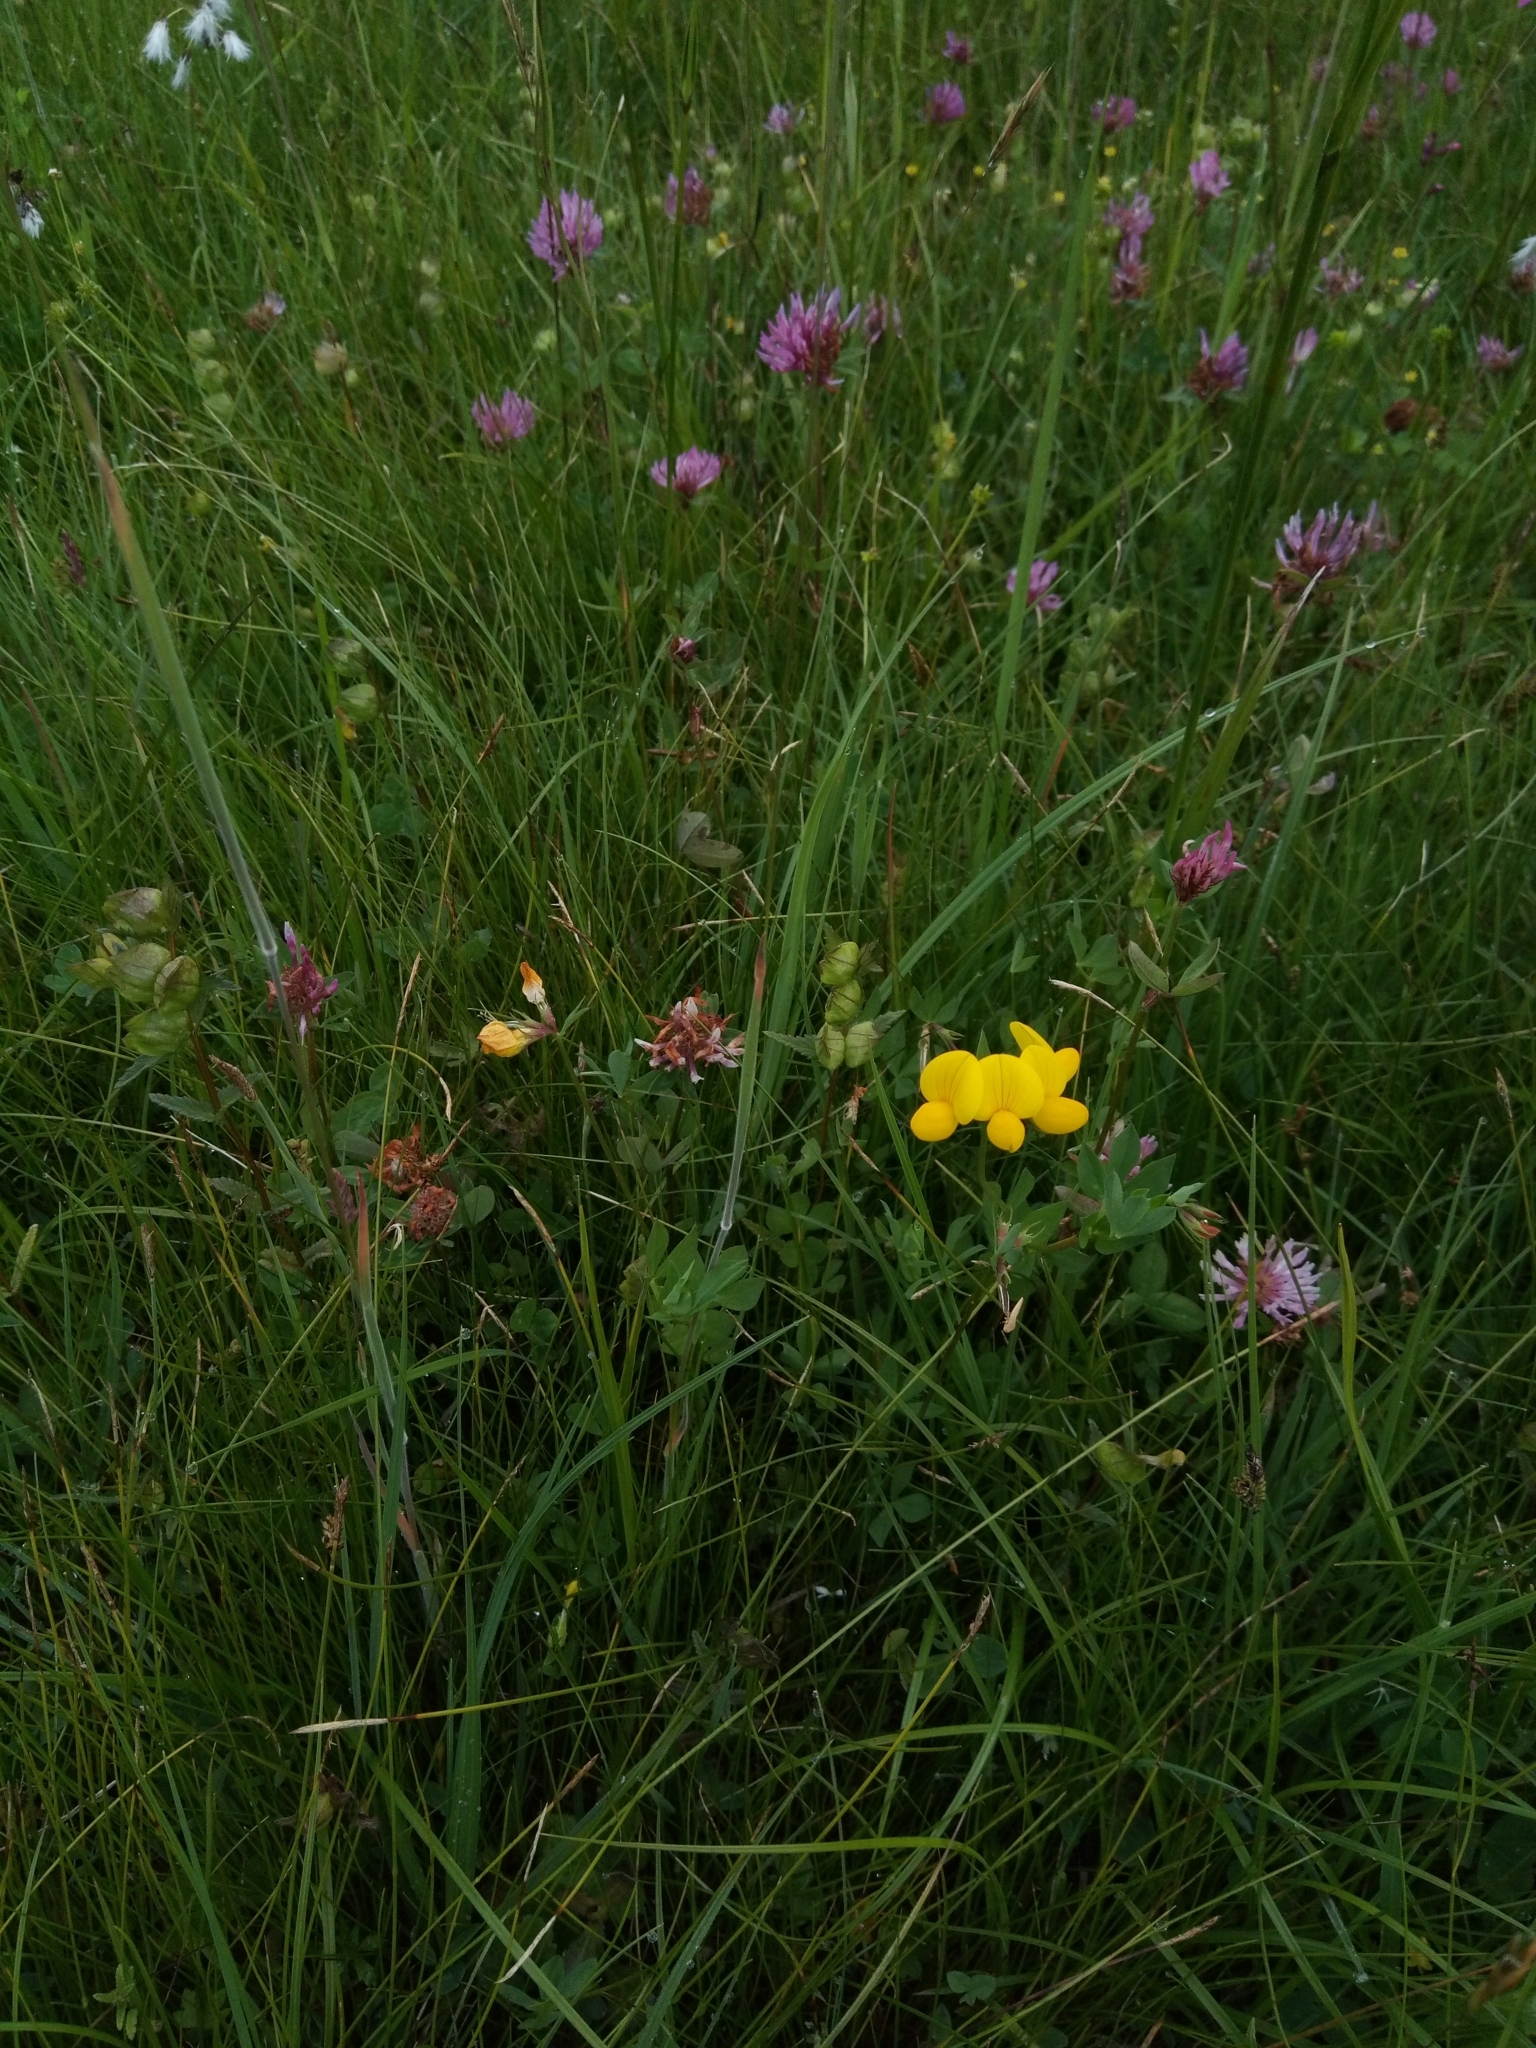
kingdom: Plantae
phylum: Tracheophyta
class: Magnoliopsida
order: Fabales
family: Fabaceae
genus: Lotus
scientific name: Lotus corniculatus
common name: Common bird's-foot-trefoil
